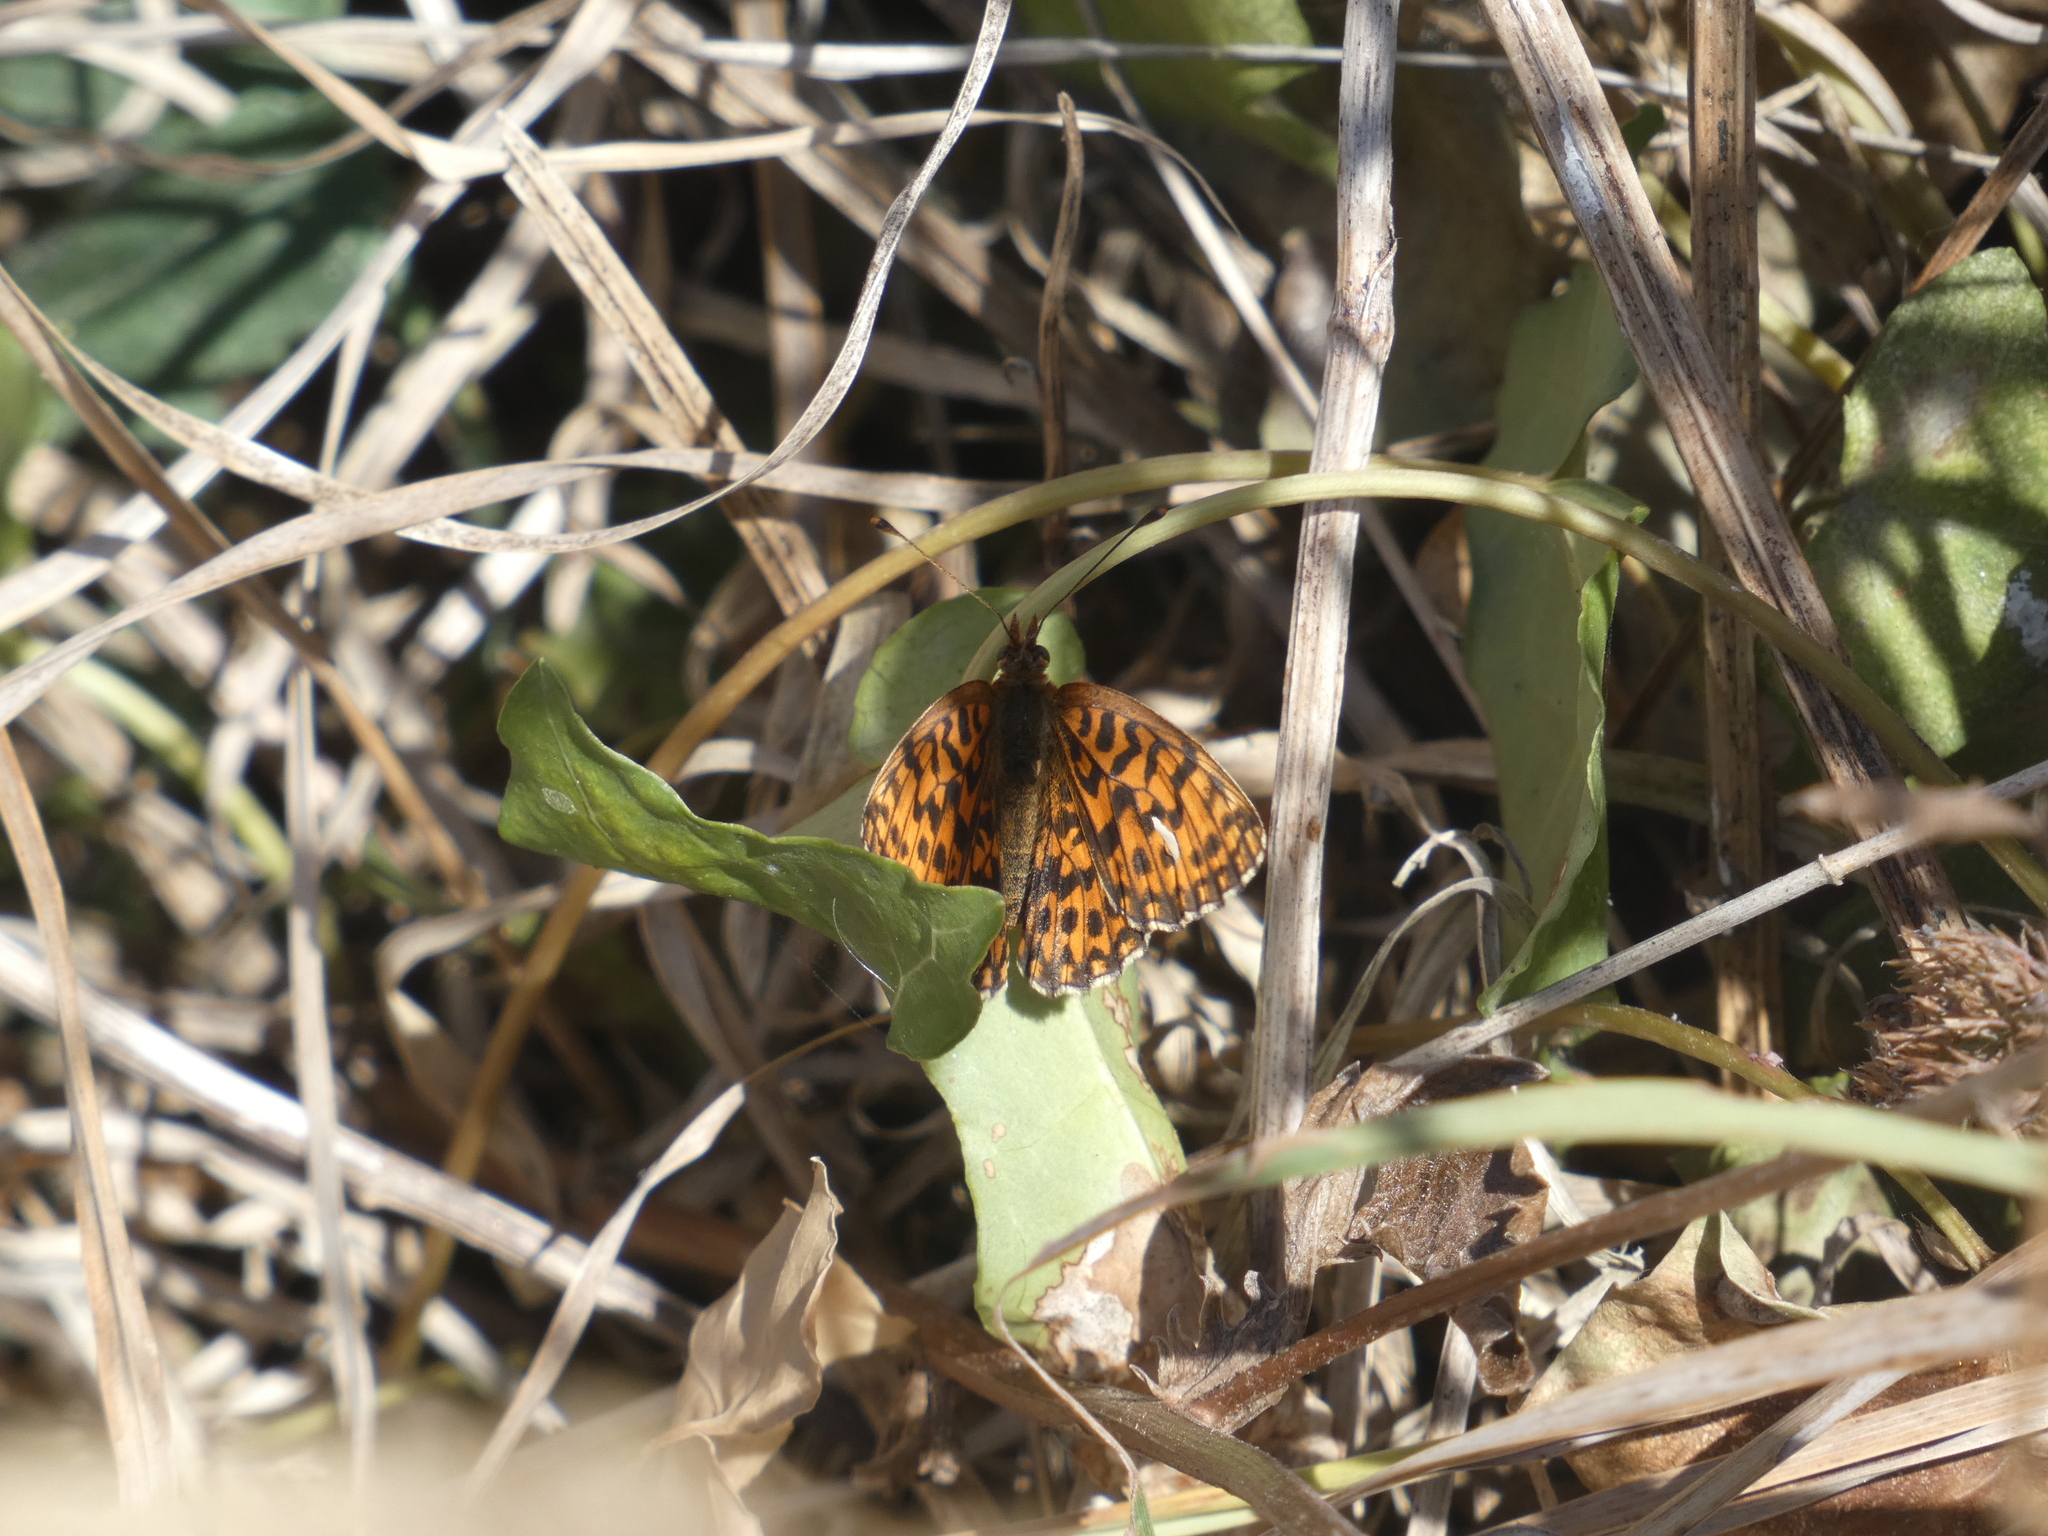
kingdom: Animalia
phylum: Arthropoda
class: Insecta
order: Lepidoptera
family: Nymphalidae
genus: Boloria
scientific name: Boloria dia
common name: Weaver's fritillary
